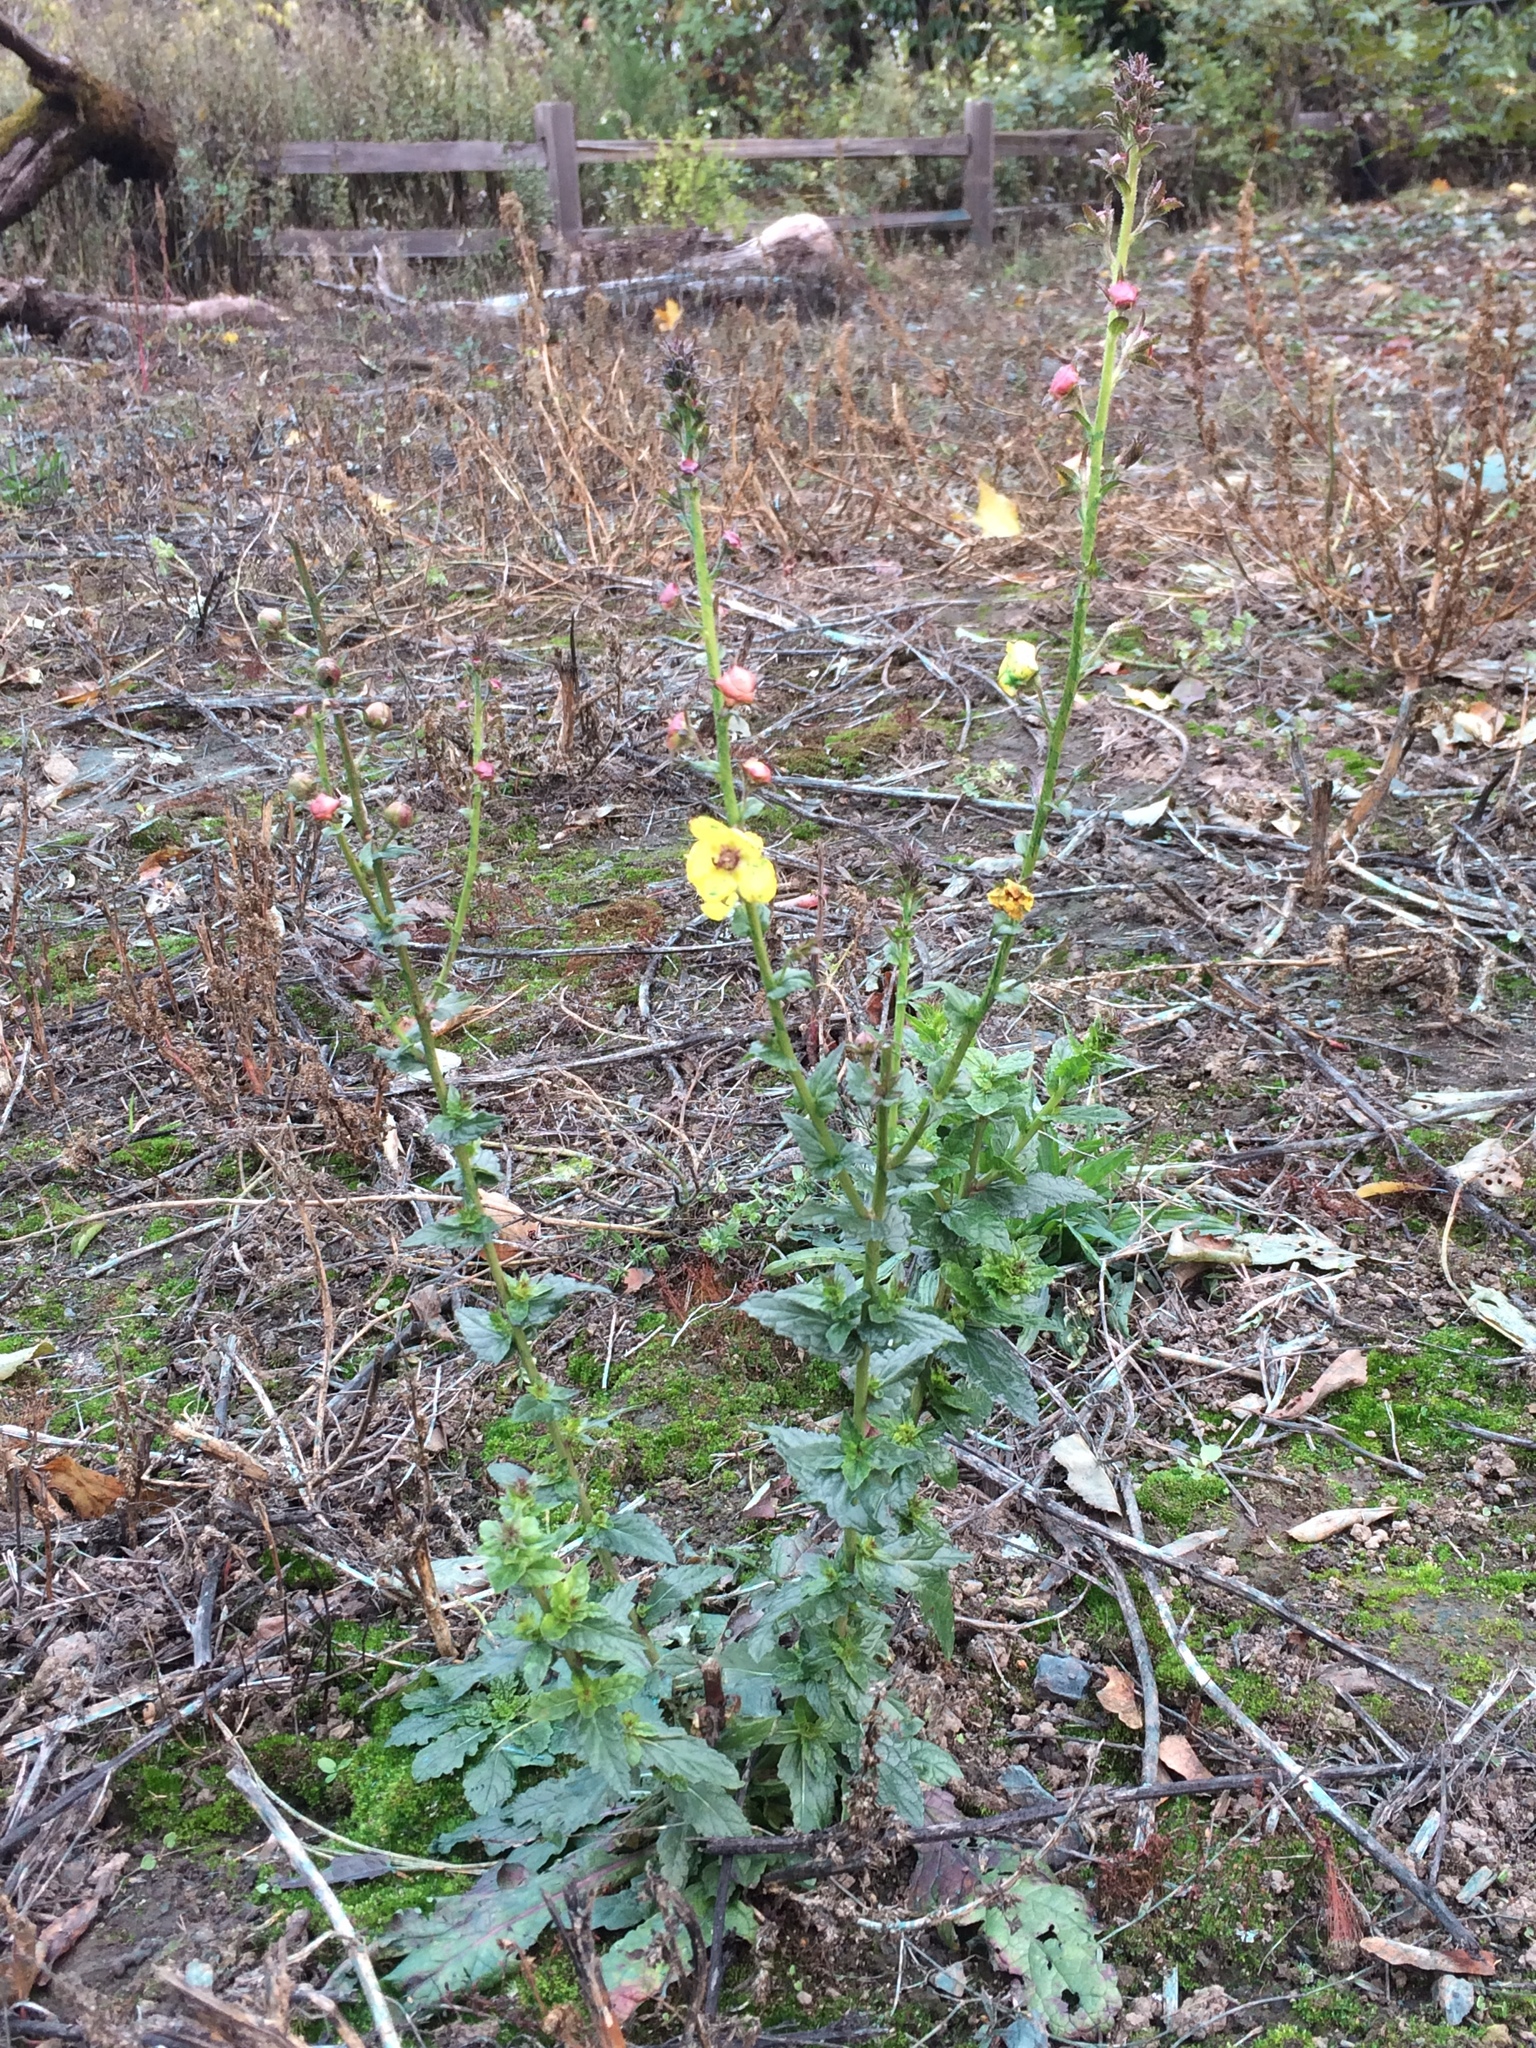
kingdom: Plantae
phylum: Tracheophyta
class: Magnoliopsida
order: Lamiales
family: Scrophulariaceae
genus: Verbascum
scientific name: Verbascum blattaria
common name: Moth mullein
